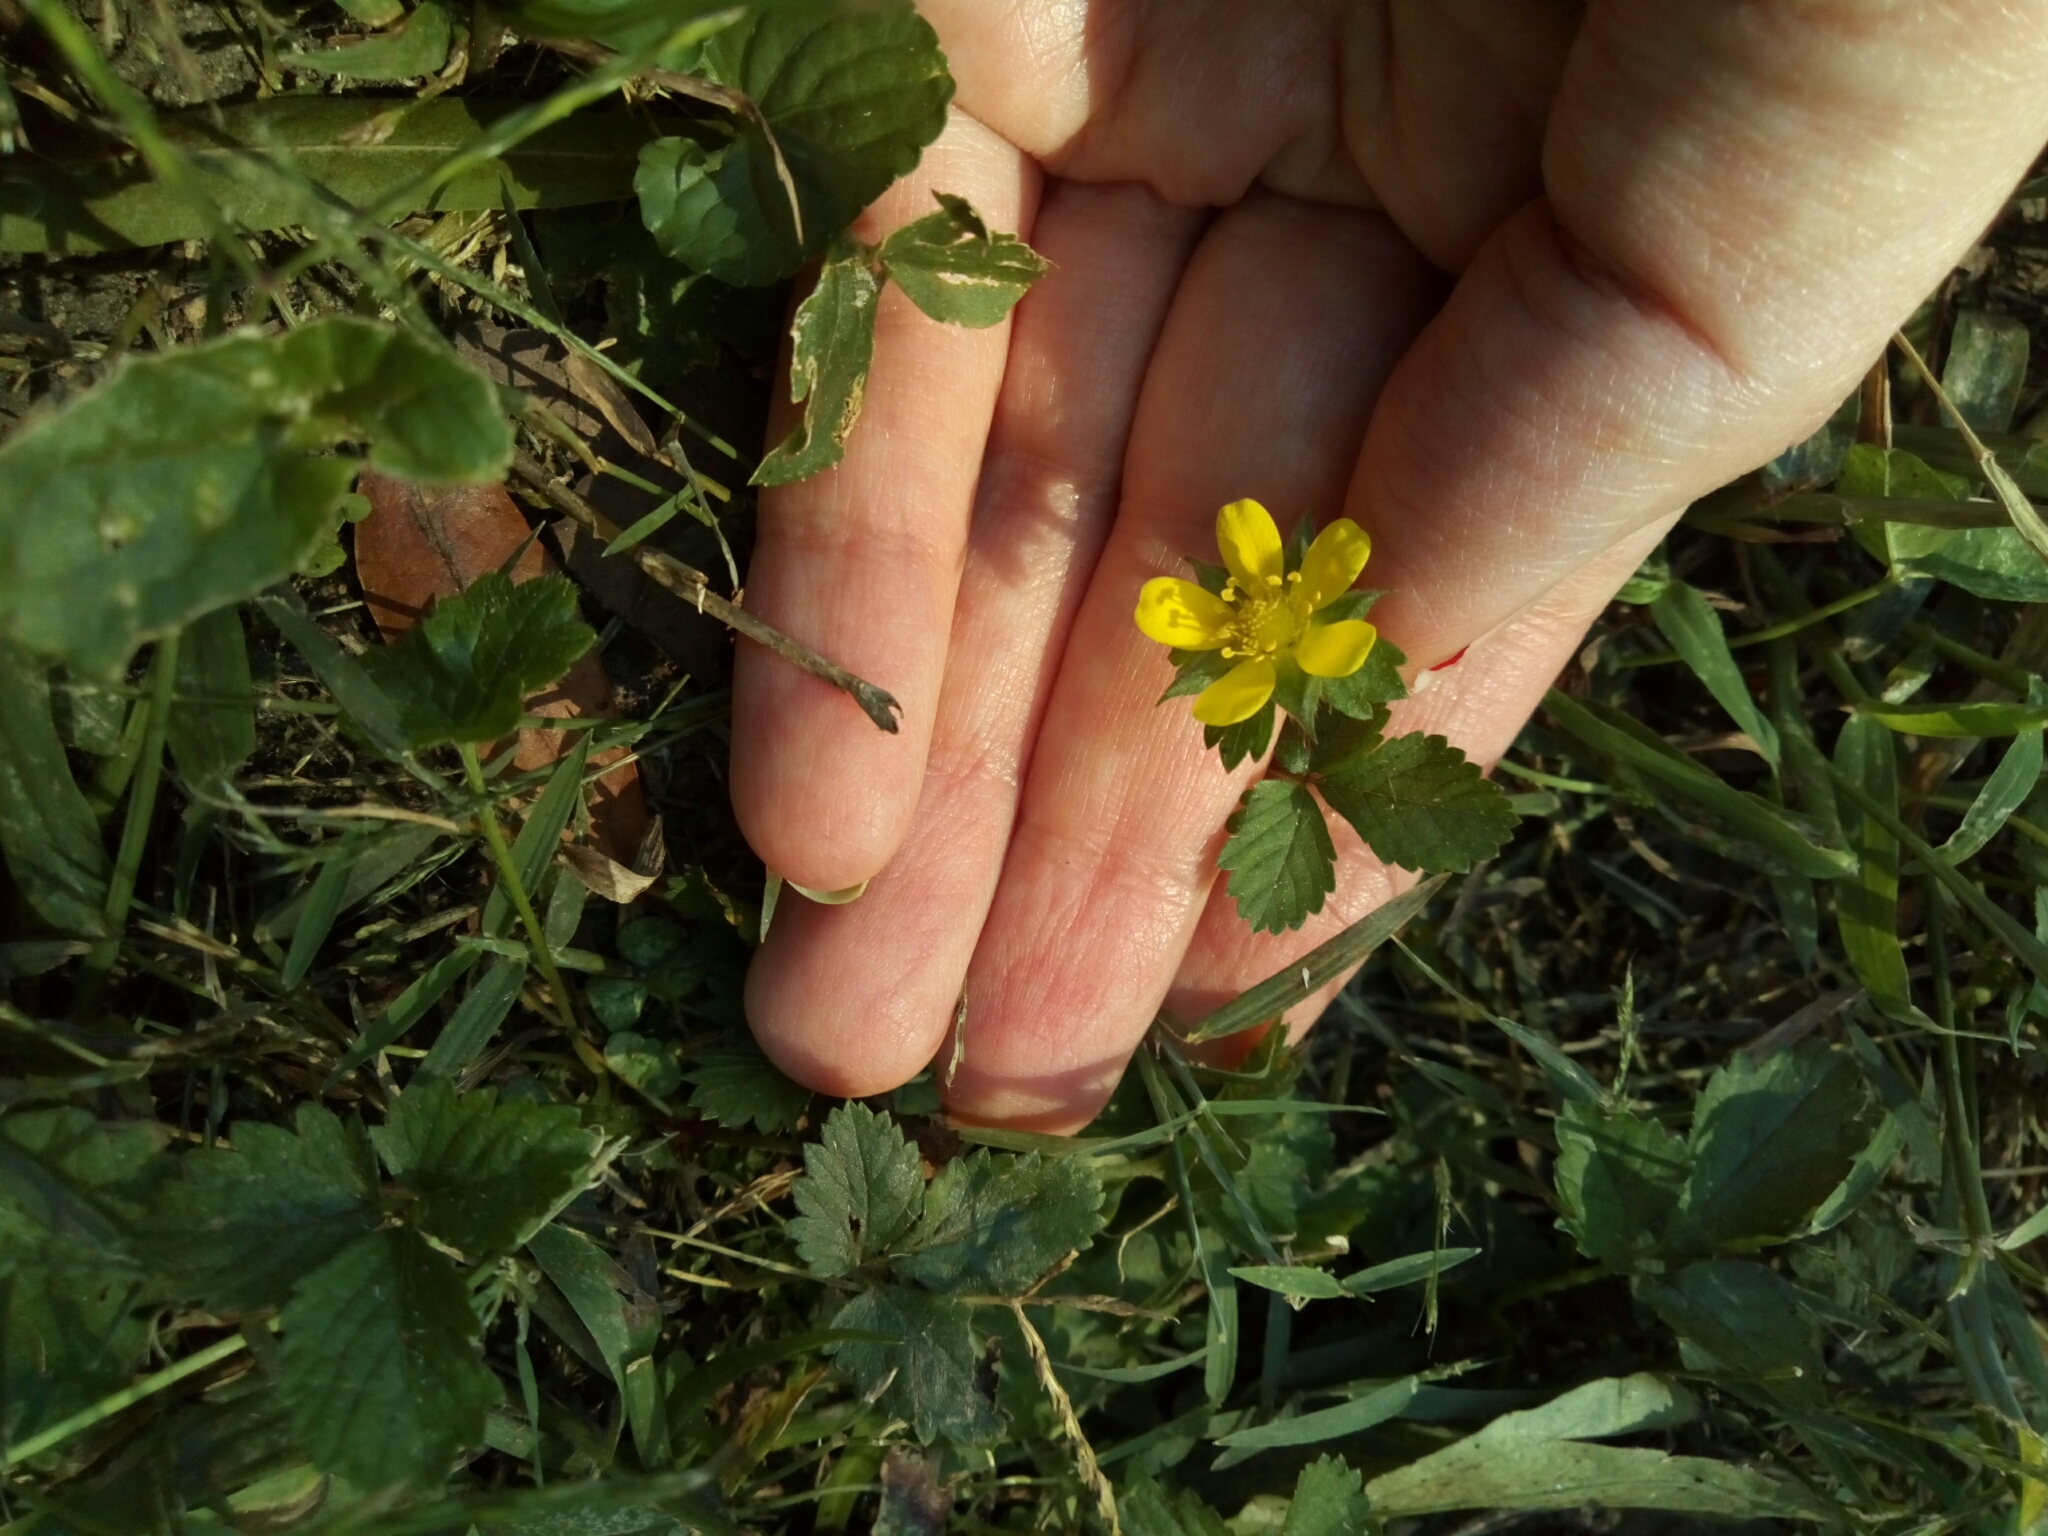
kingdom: Plantae
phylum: Tracheophyta
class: Magnoliopsida
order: Rosales
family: Rosaceae
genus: Potentilla
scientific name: Potentilla indica
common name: Yellow-flowered strawberry
